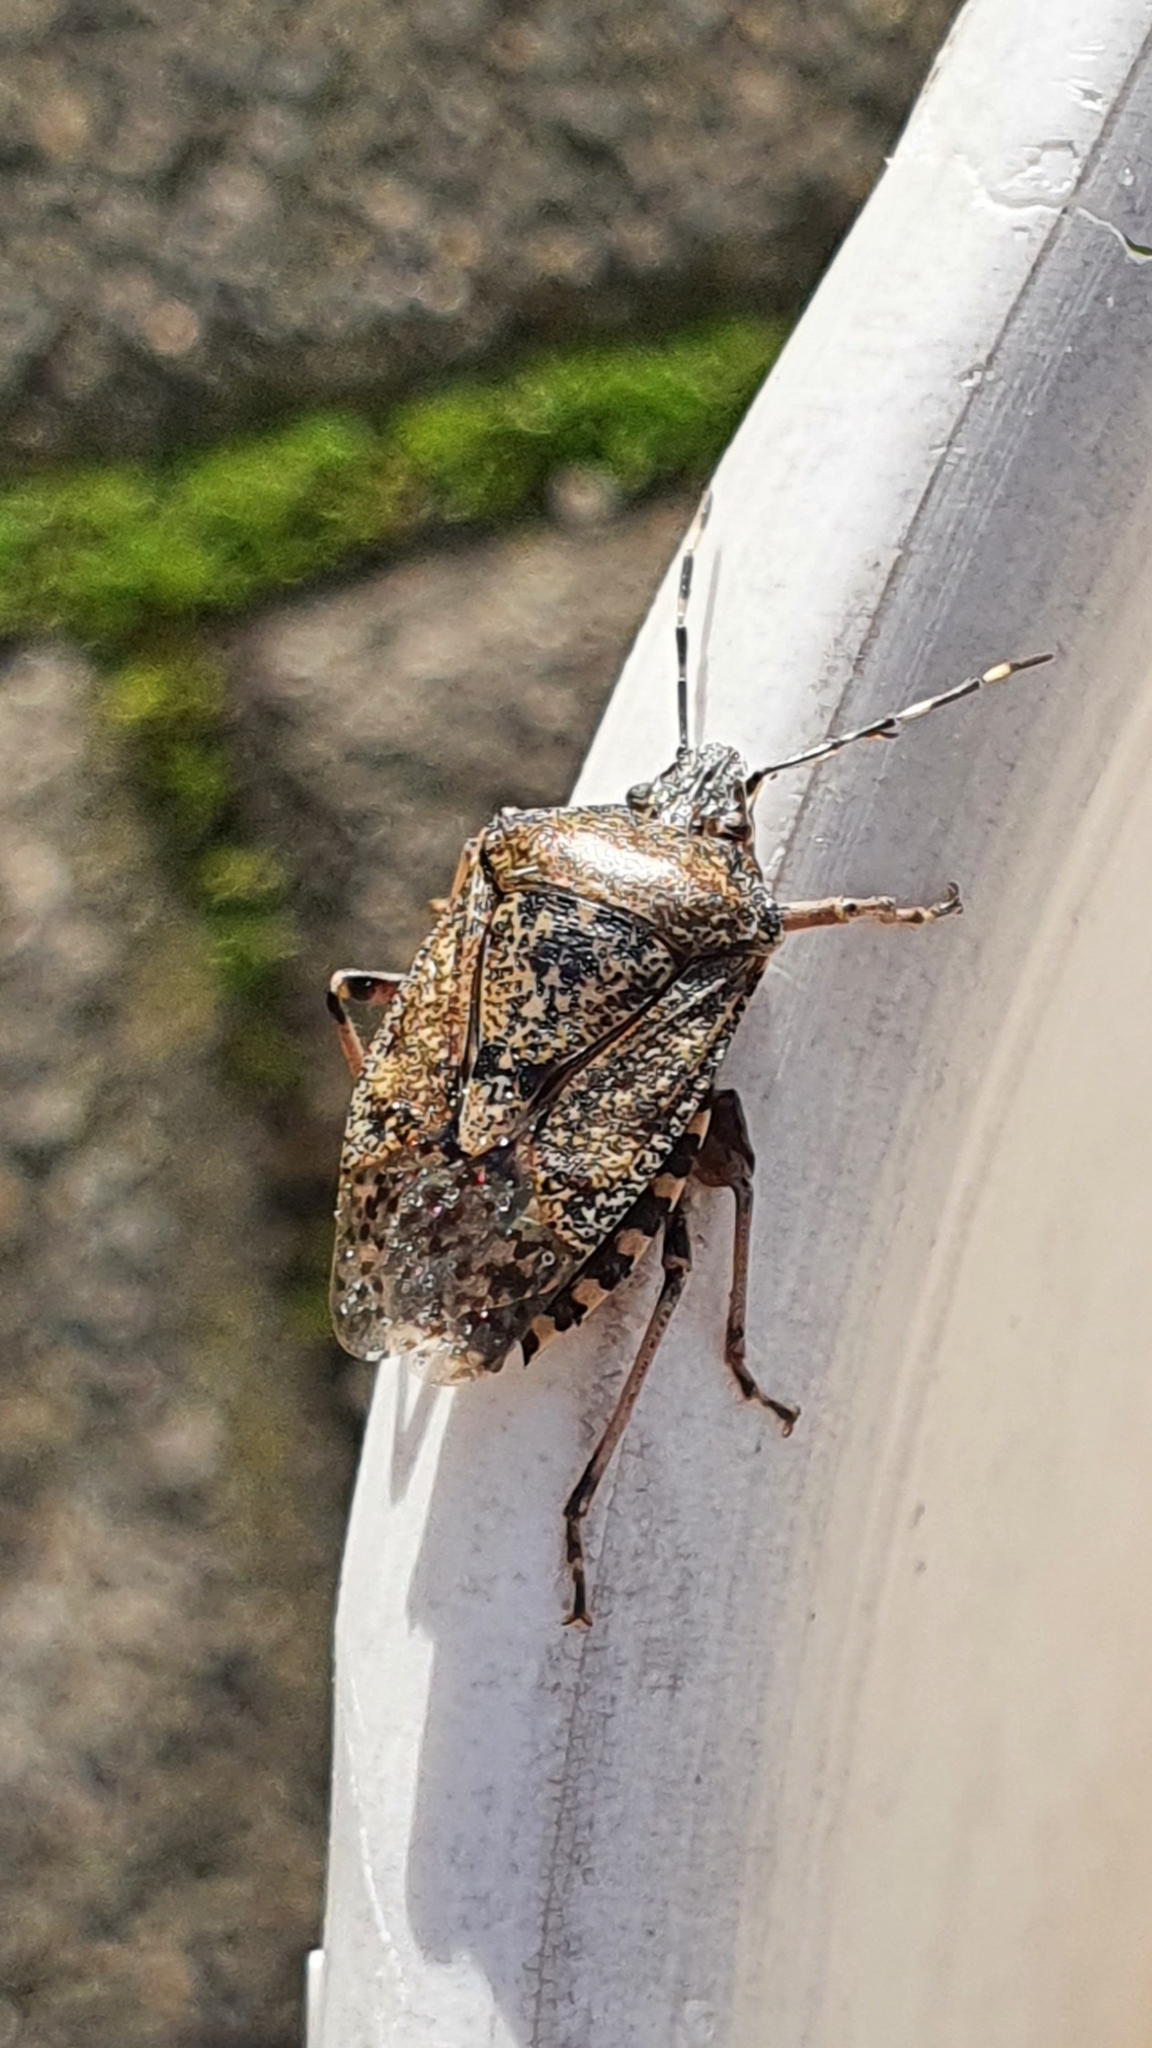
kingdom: Animalia
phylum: Arthropoda
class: Insecta
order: Hemiptera
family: Pentatomidae
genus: Rhaphigaster
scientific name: Rhaphigaster nebulosa
